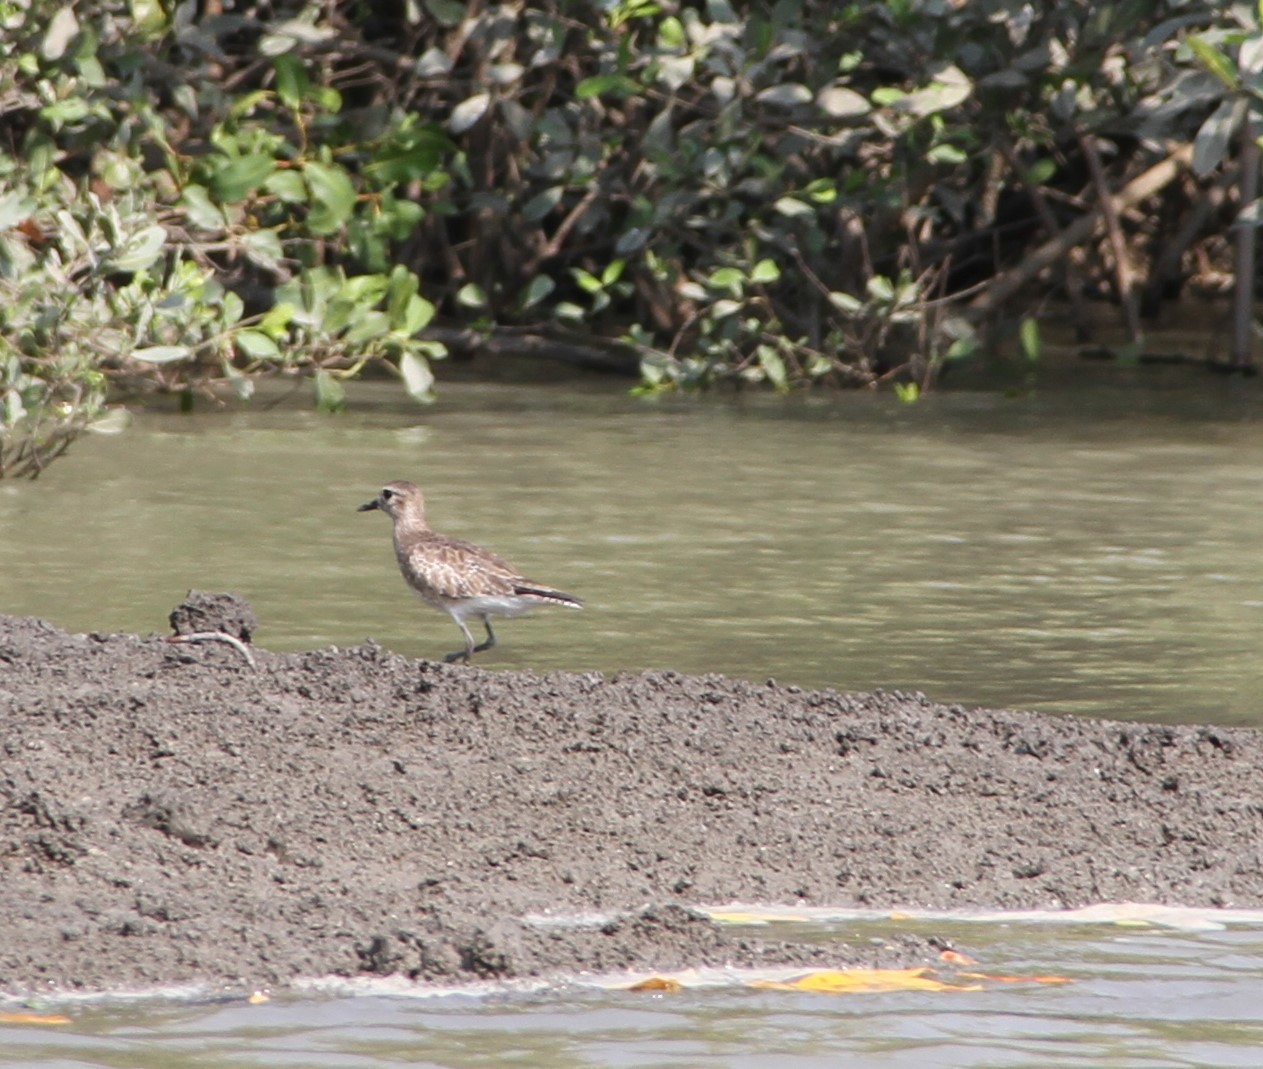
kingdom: Animalia
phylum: Chordata
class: Aves
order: Charadriiformes
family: Charadriidae
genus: Pluvialis
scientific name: Pluvialis squatarola
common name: Grey plover
